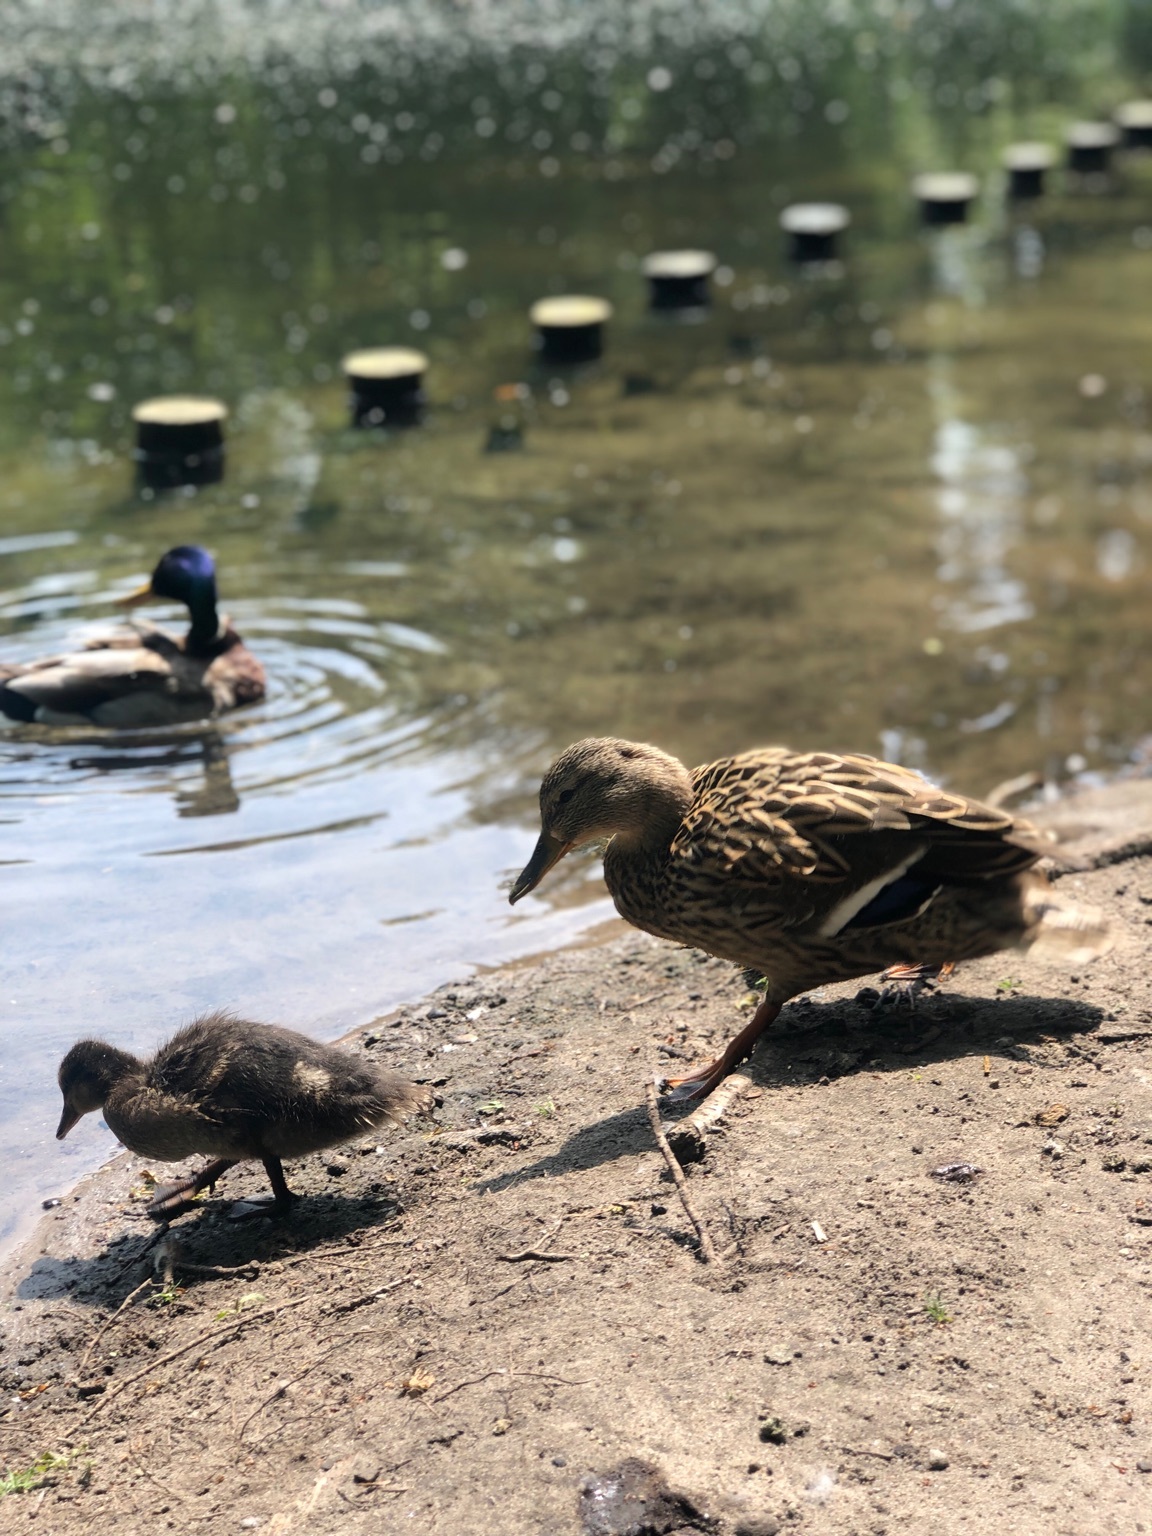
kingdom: Animalia
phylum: Chordata
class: Aves
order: Anseriformes
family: Anatidae
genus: Anas
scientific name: Anas platyrhynchos
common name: Mallard
